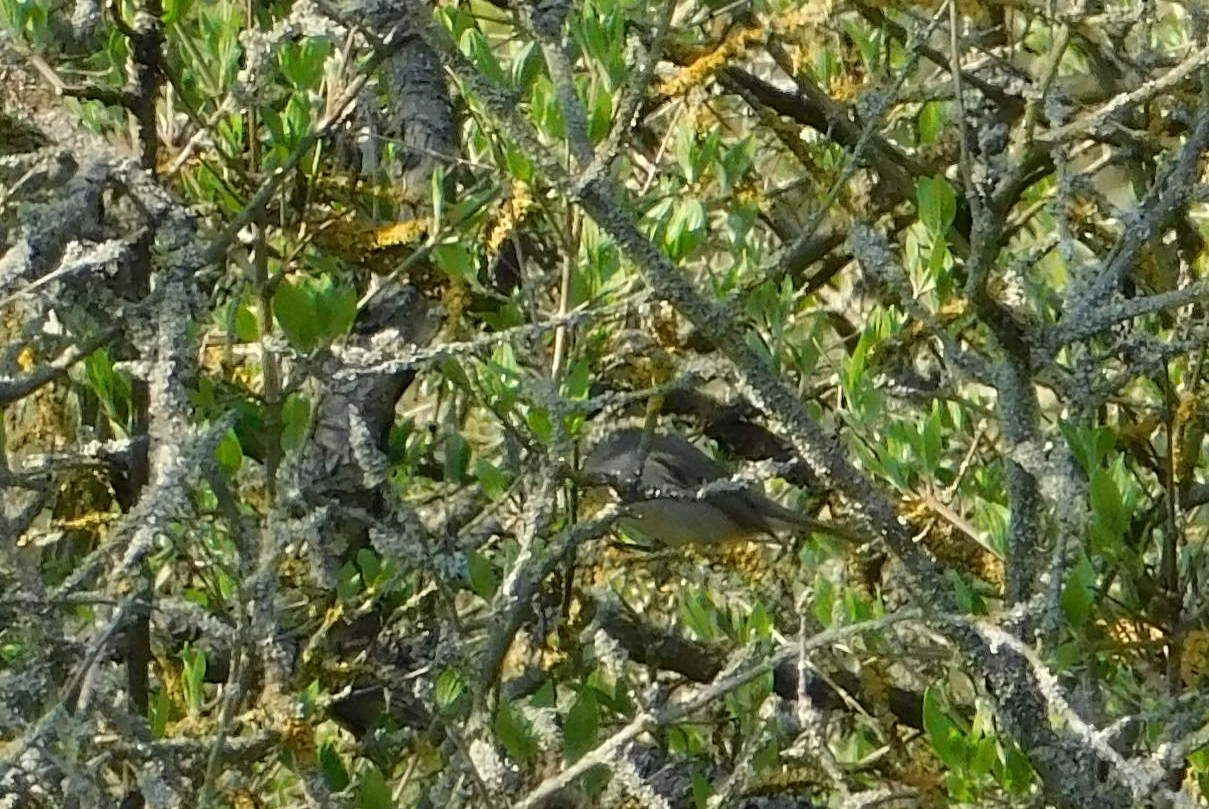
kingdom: Animalia
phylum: Chordata
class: Aves
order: Passeriformes
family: Sylviidae
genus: Sylvia
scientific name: Sylvia atricapilla
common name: Eurasian blackcap
